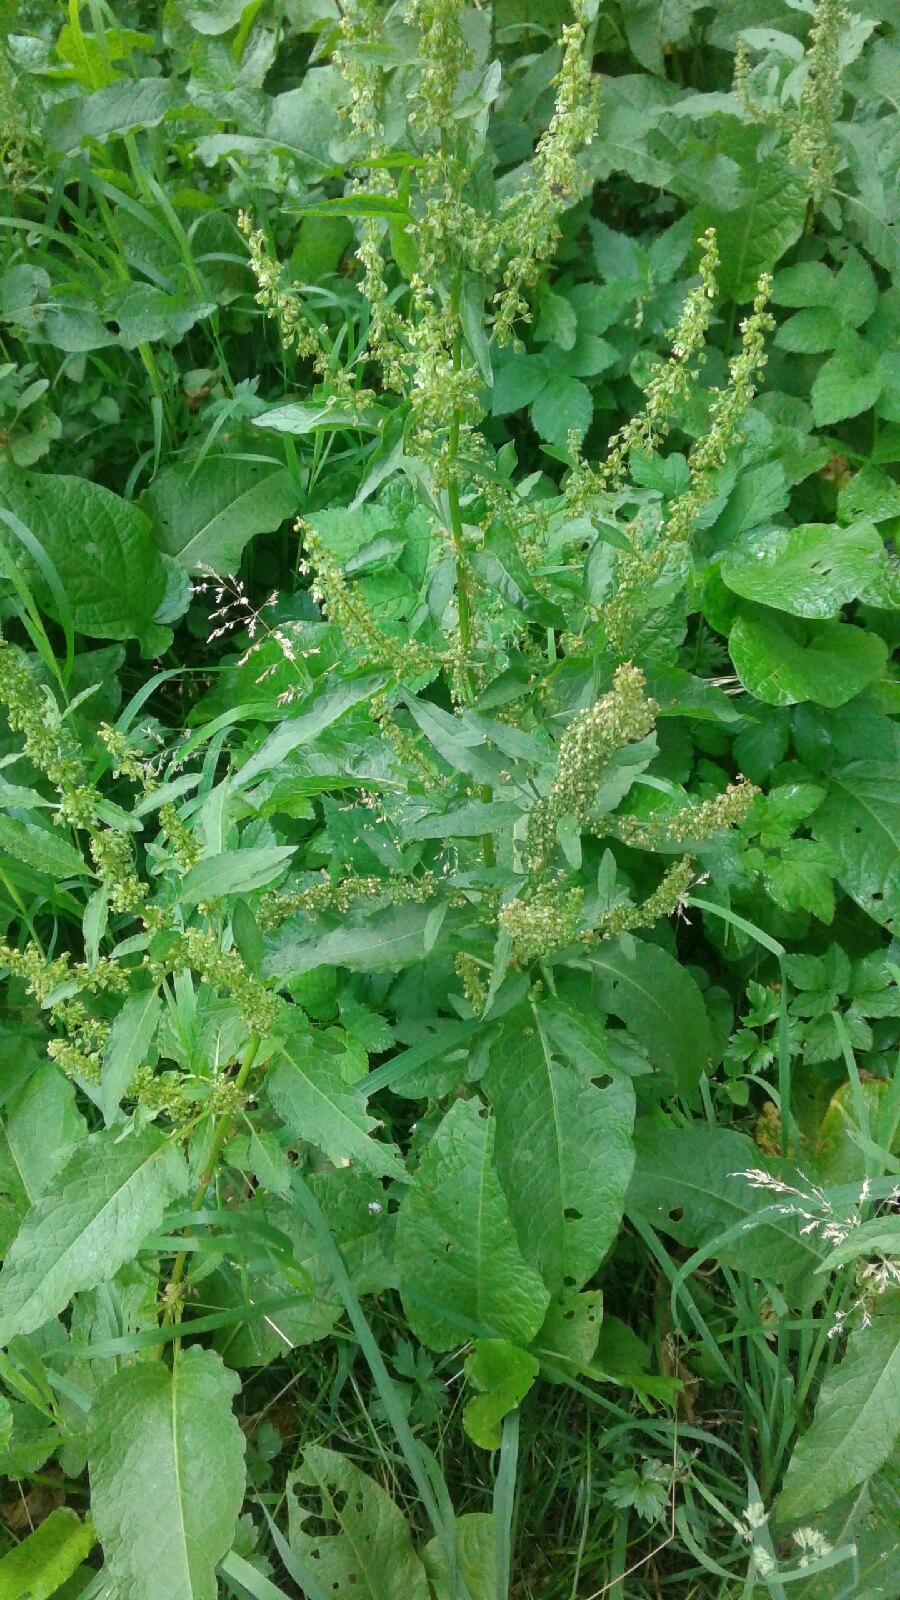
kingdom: Plantae
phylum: Tracheophyta
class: Magnoliopsida
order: Caryophyllales
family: Polygonaceae
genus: Rumex
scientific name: Rumex obtusifolius
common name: Bitter dock
